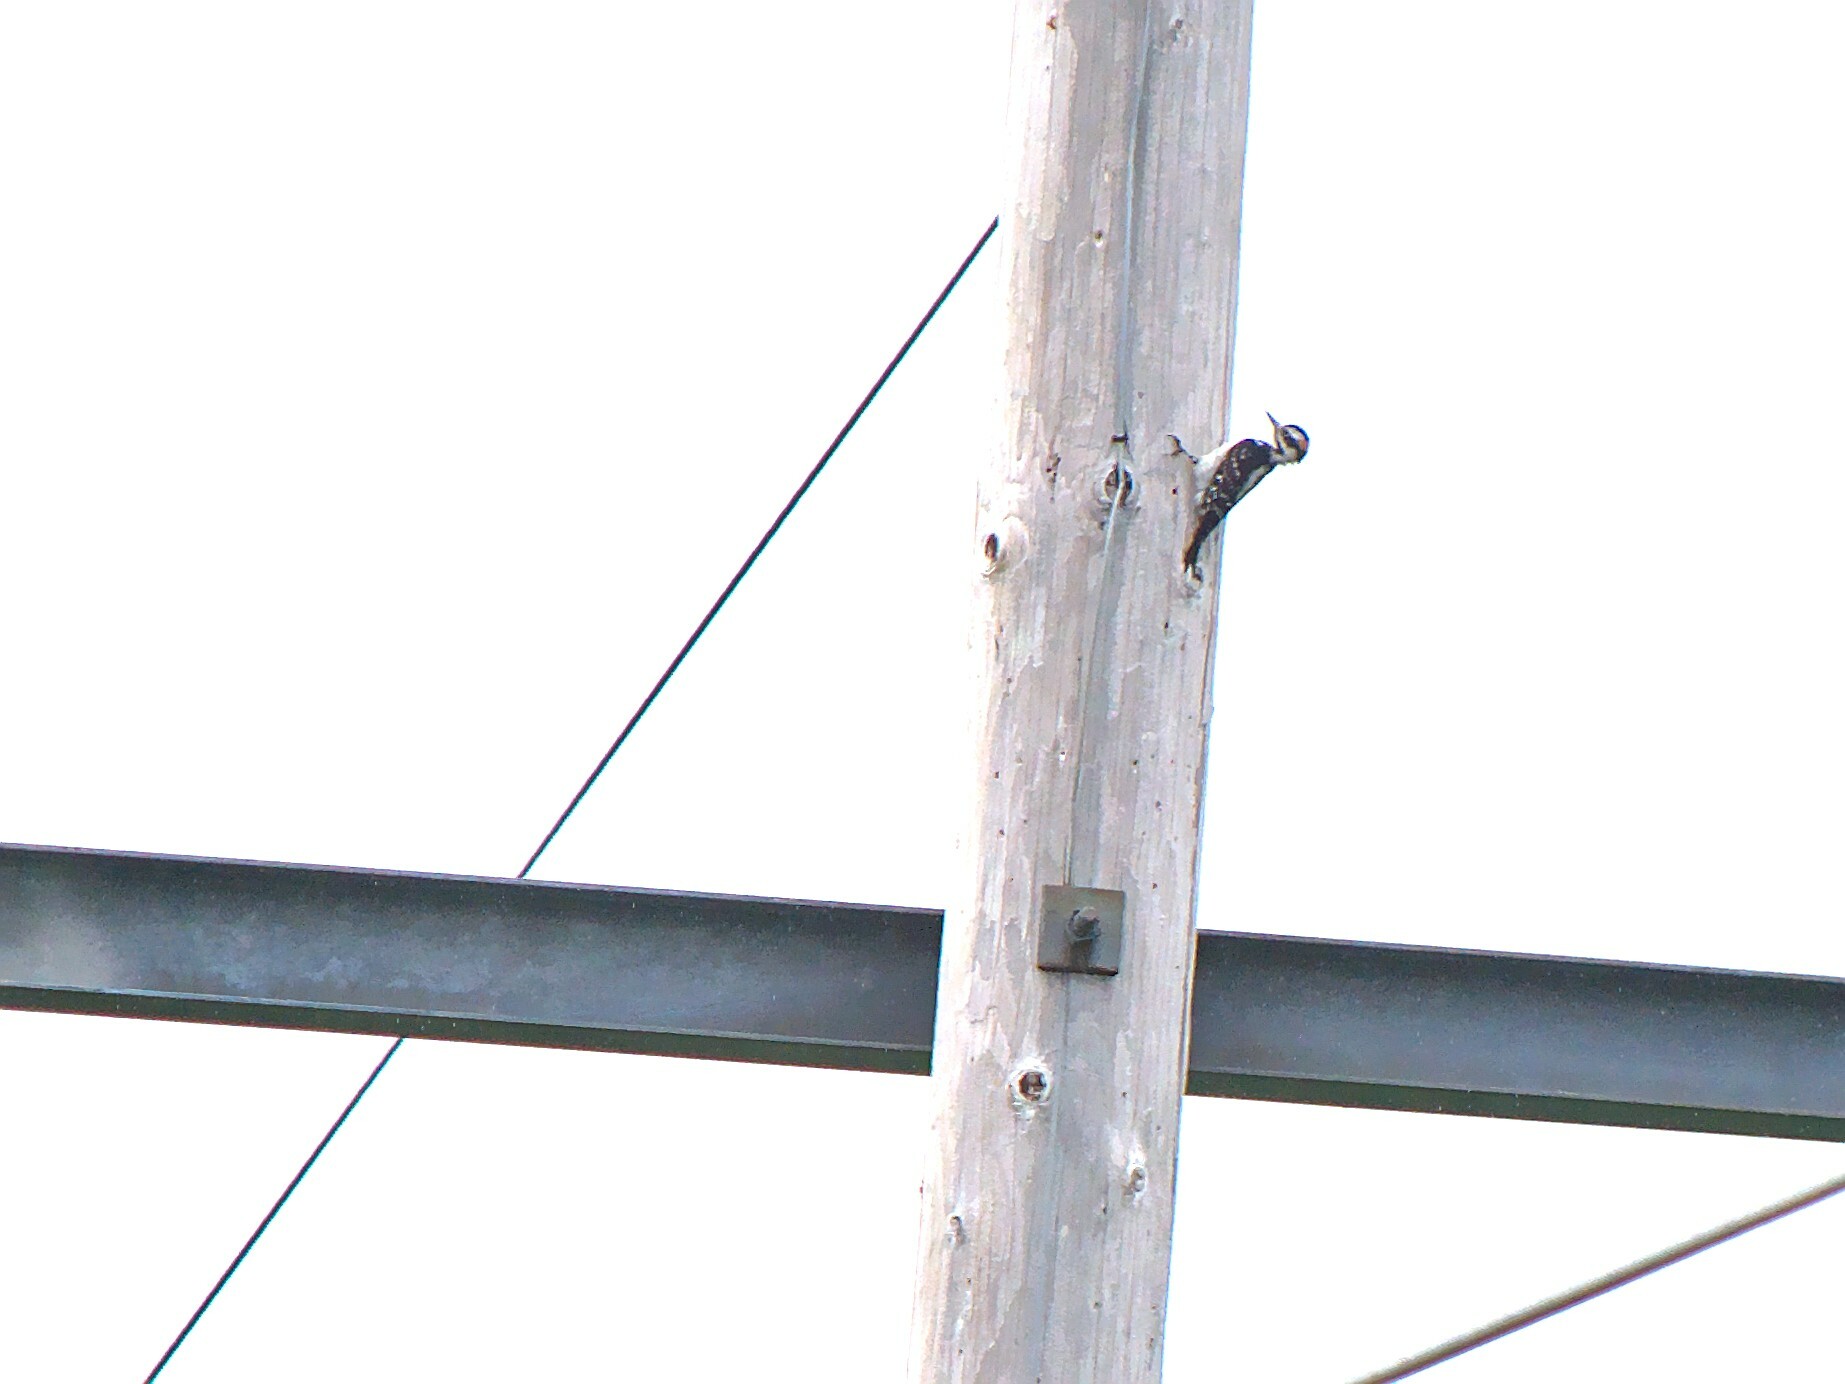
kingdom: Animalia
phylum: Chordata
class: Aves
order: Piciformes
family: Picidae
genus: Leuconotopicus
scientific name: Leuconotopicus villosus
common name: Hairy woodpecker
